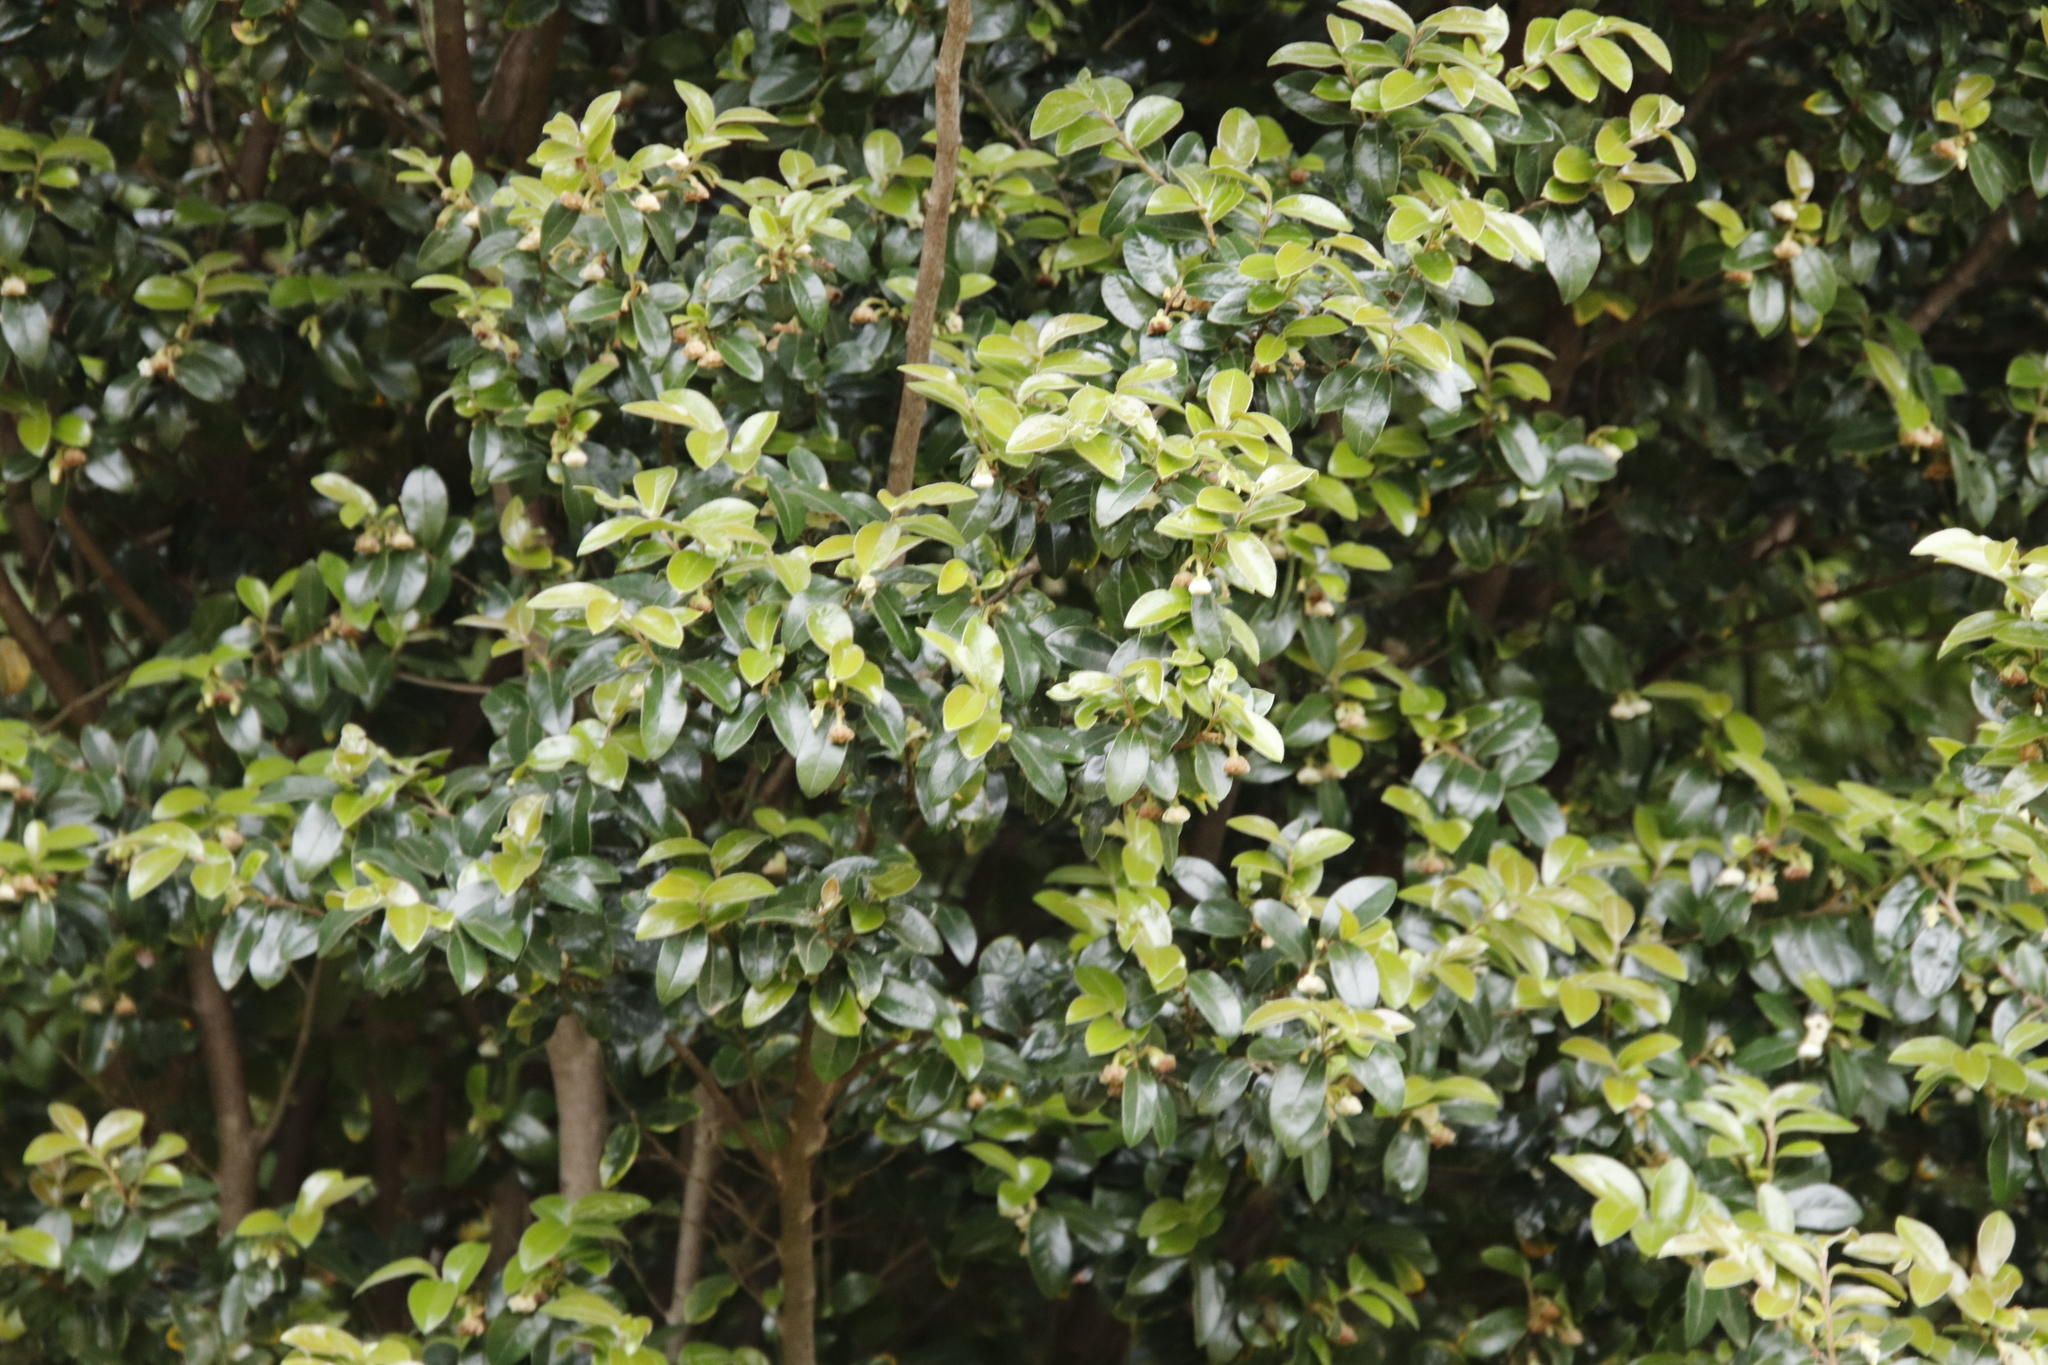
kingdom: Plantae
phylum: Tracheophyta
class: Magnoliopsida
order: Ericales
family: Ebenaceae
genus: Diospyros
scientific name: Diospyros whyteana
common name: Bladder-nut
